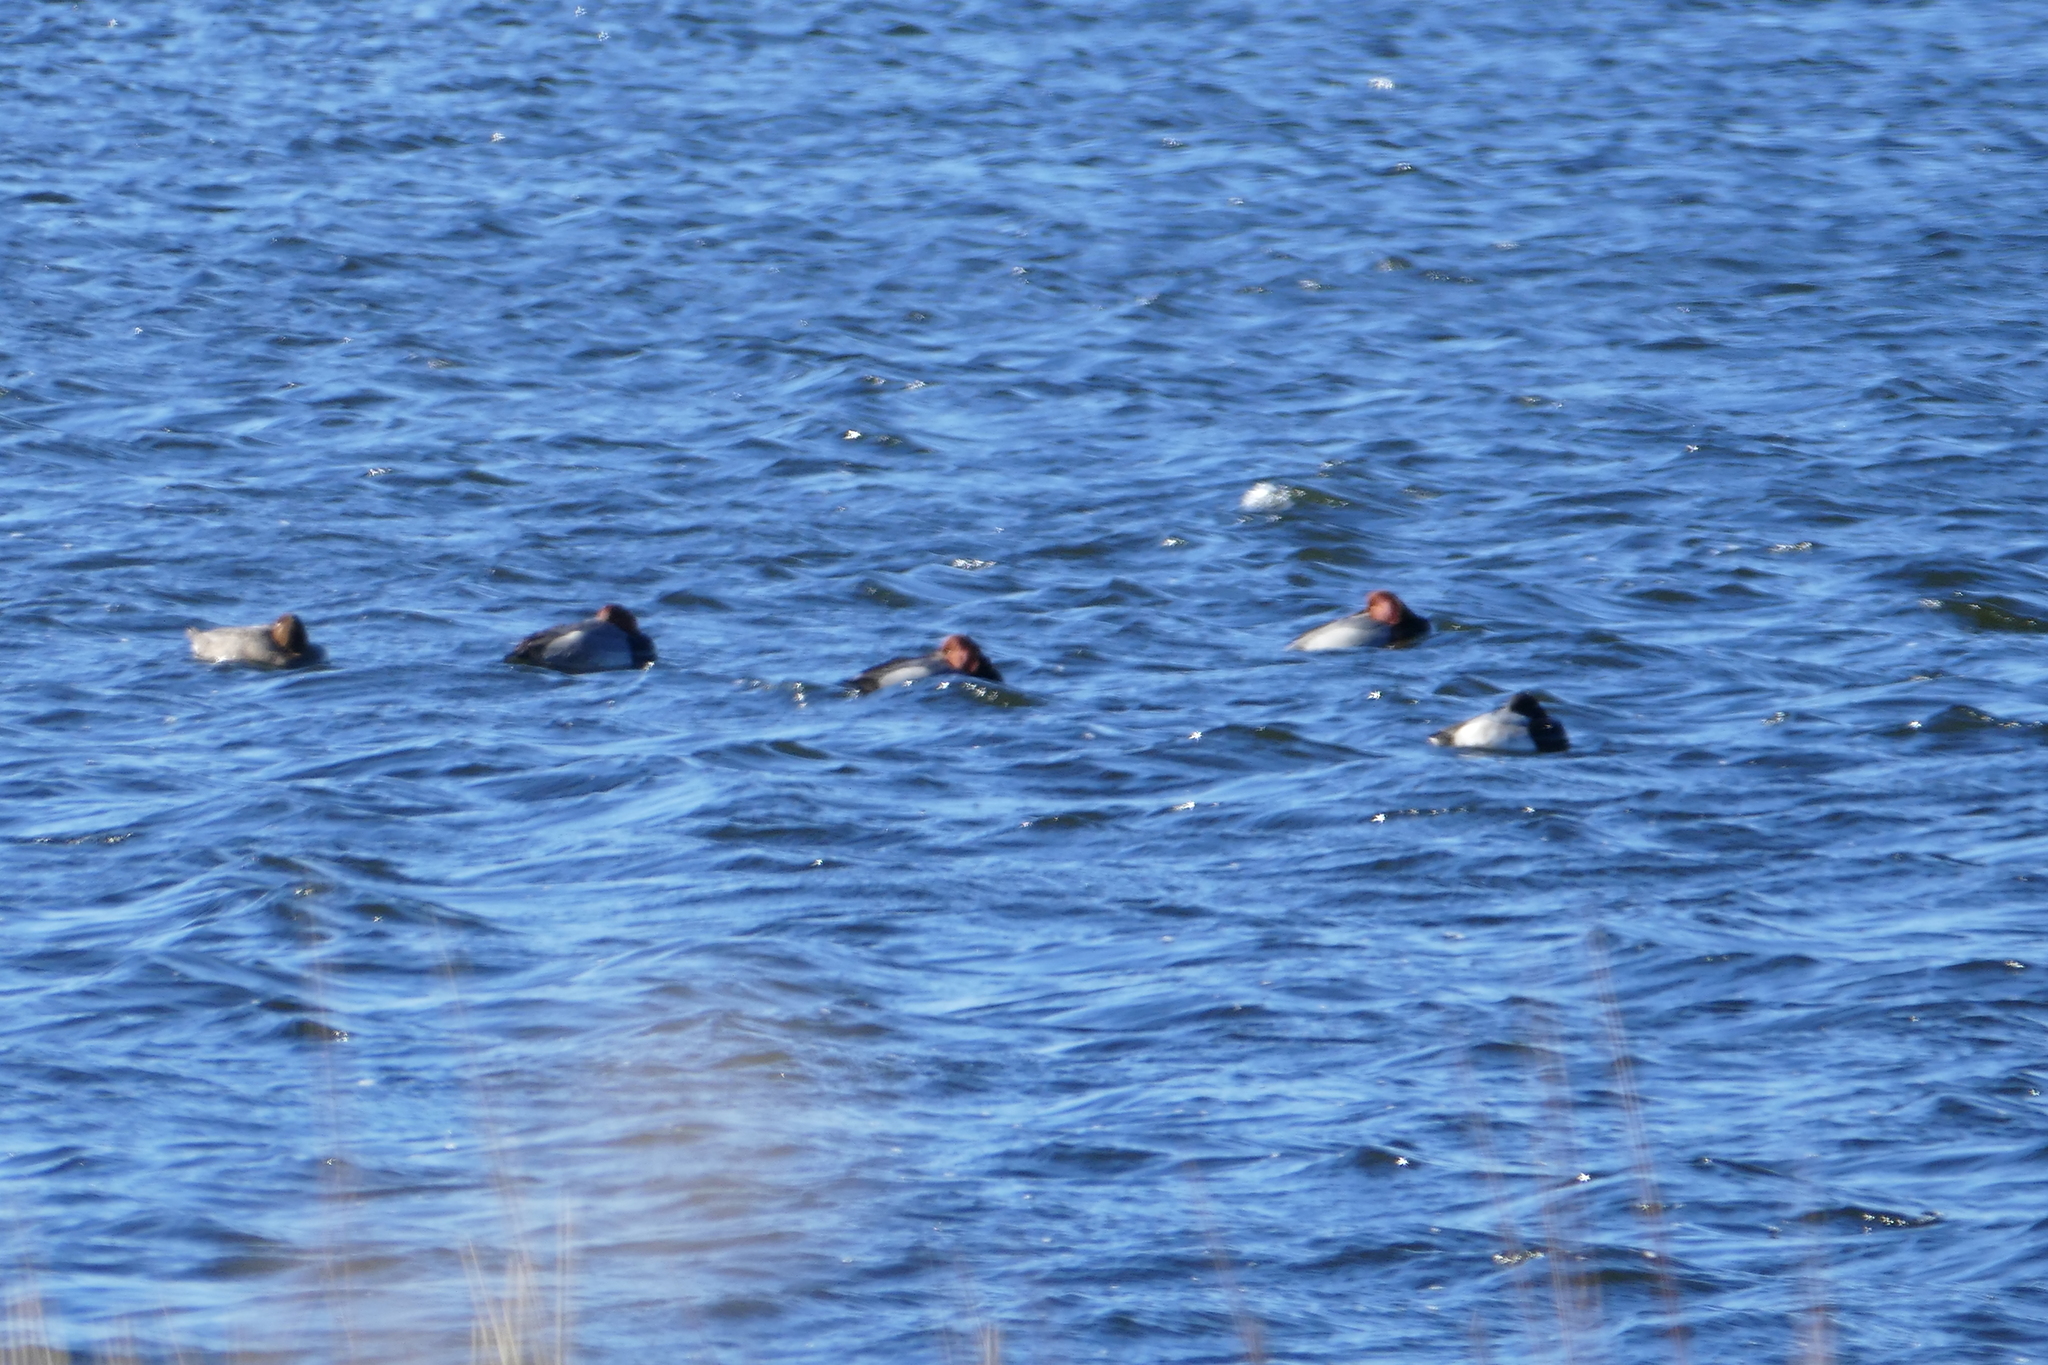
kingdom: Animalia
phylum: Chordata
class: Aves
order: Anseriformes
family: Anatidae
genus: Aythya
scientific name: Aythya americana
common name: Redhead
